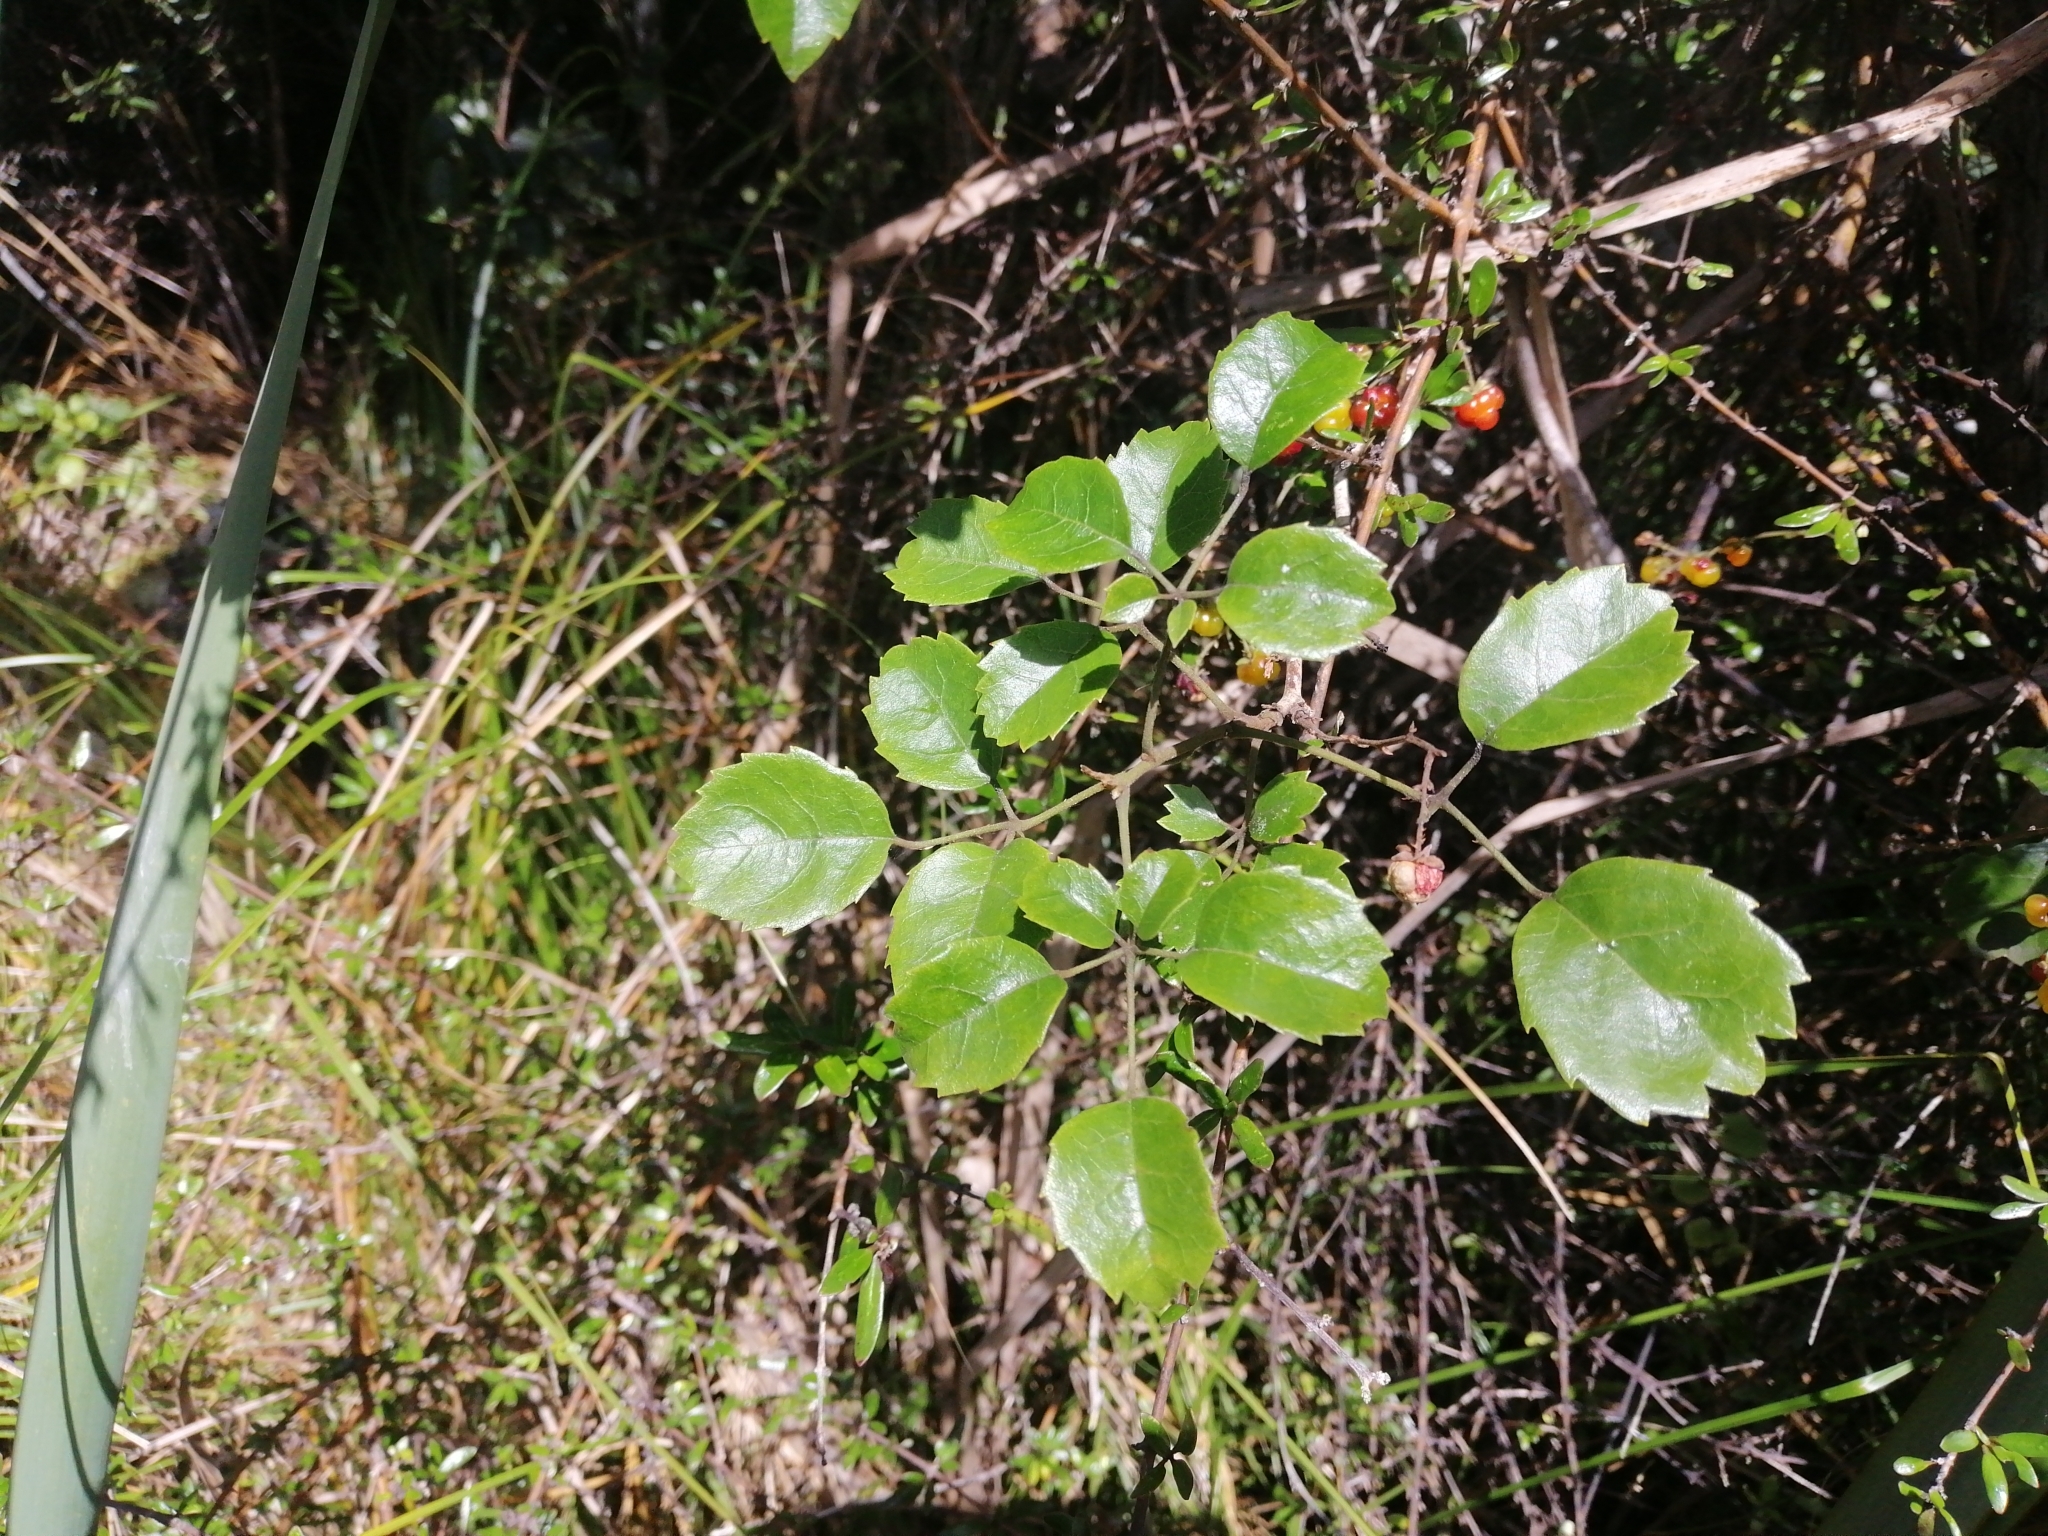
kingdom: Plantae
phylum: Tracheophyta
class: Magnoliopsida
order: Rosales
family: Rosaceae
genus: Rubus
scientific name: Rubus australis
